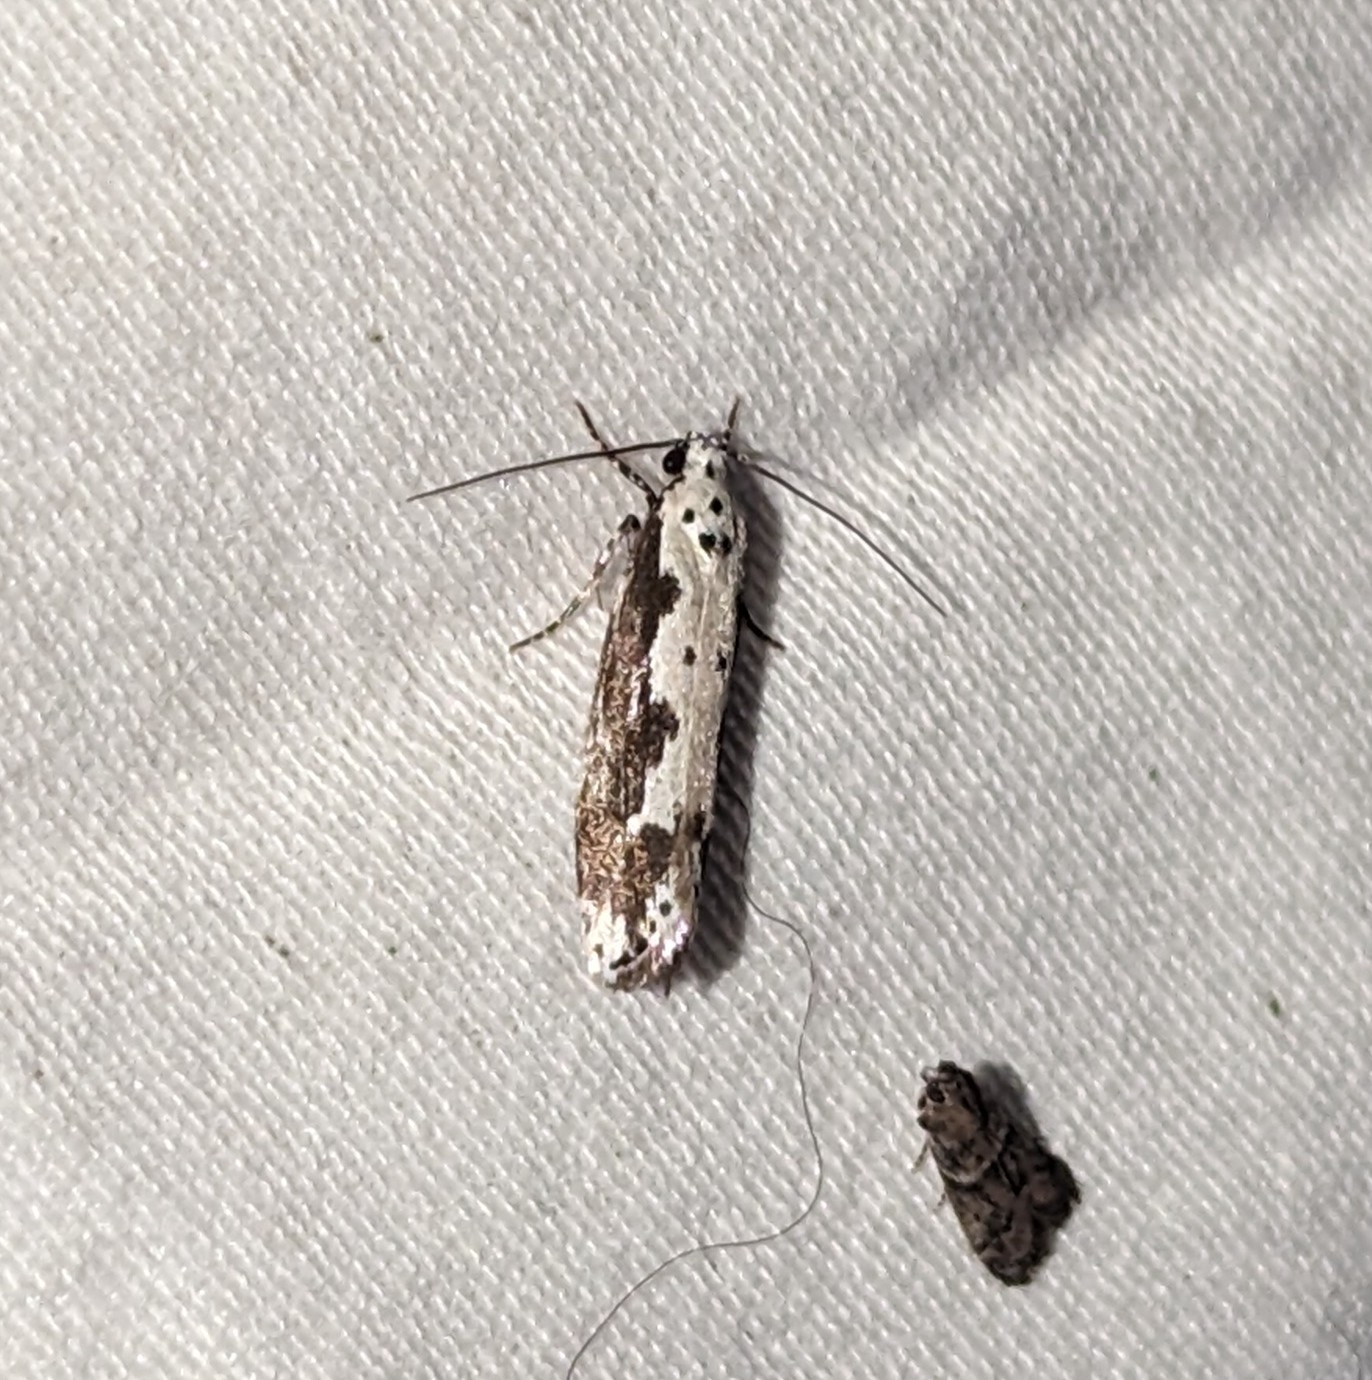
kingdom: Animalia
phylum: Arthropoda
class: Insecta
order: Lepidoptera
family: Ethmiidae
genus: Ethmia
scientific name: Ethmia marmorea
